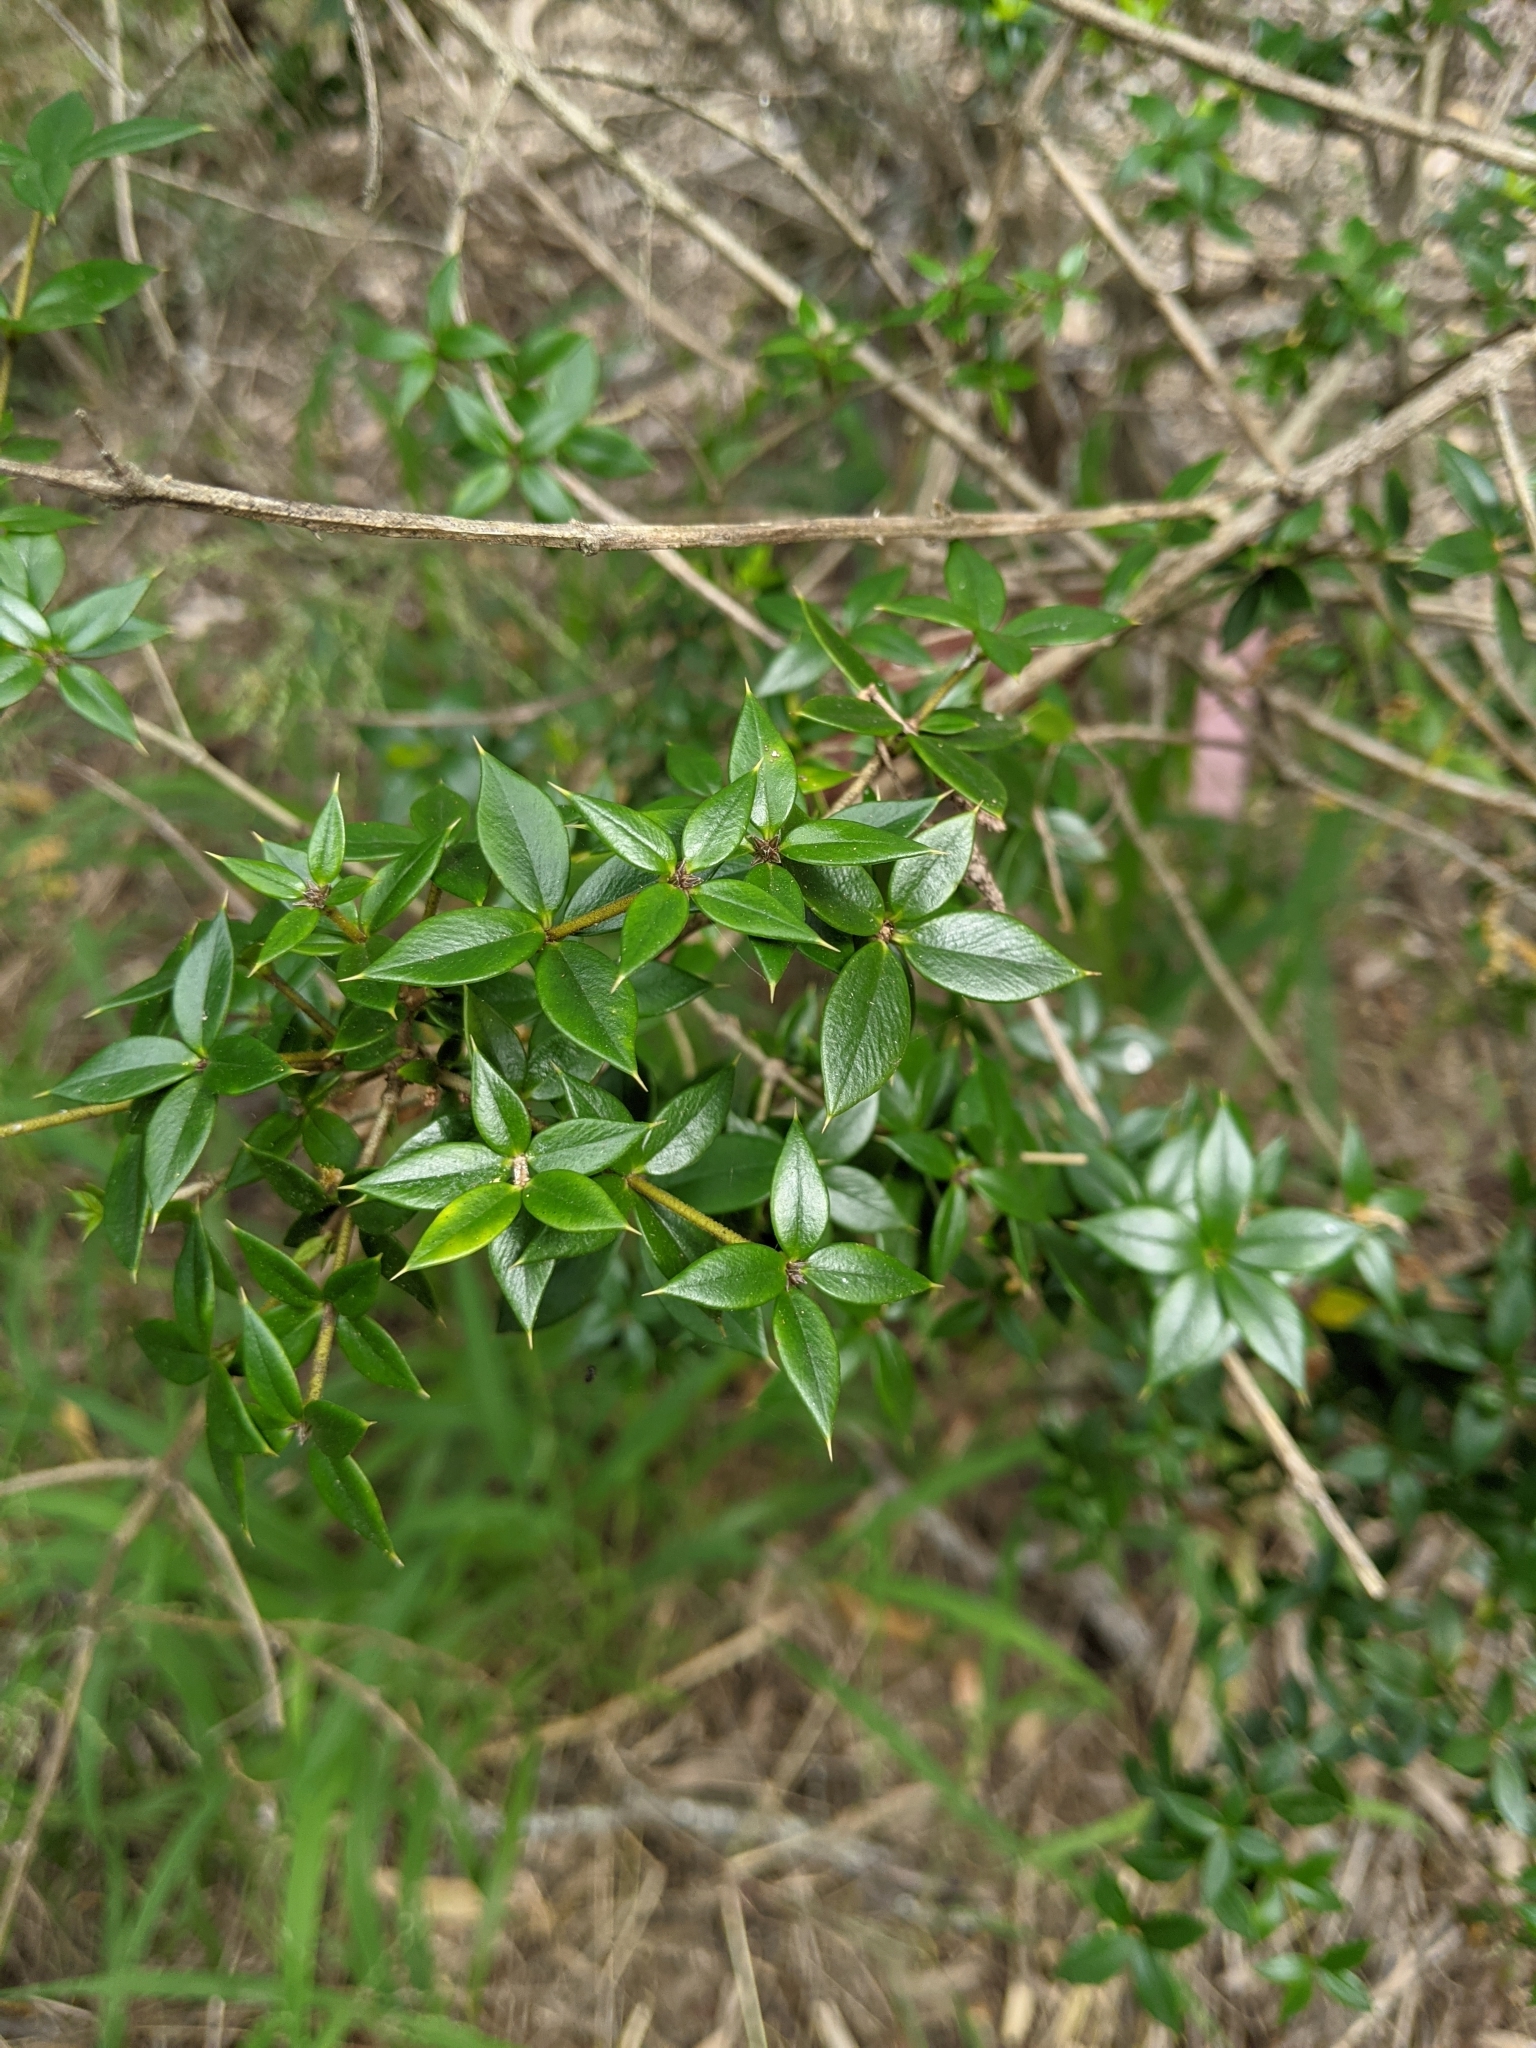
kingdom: Plantae
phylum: Tracheophyta
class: Magnoliopsida
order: Gentianales
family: Apocynaceae
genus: Alyxia
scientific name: Alyxia ruscifolia
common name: Chainfruit
